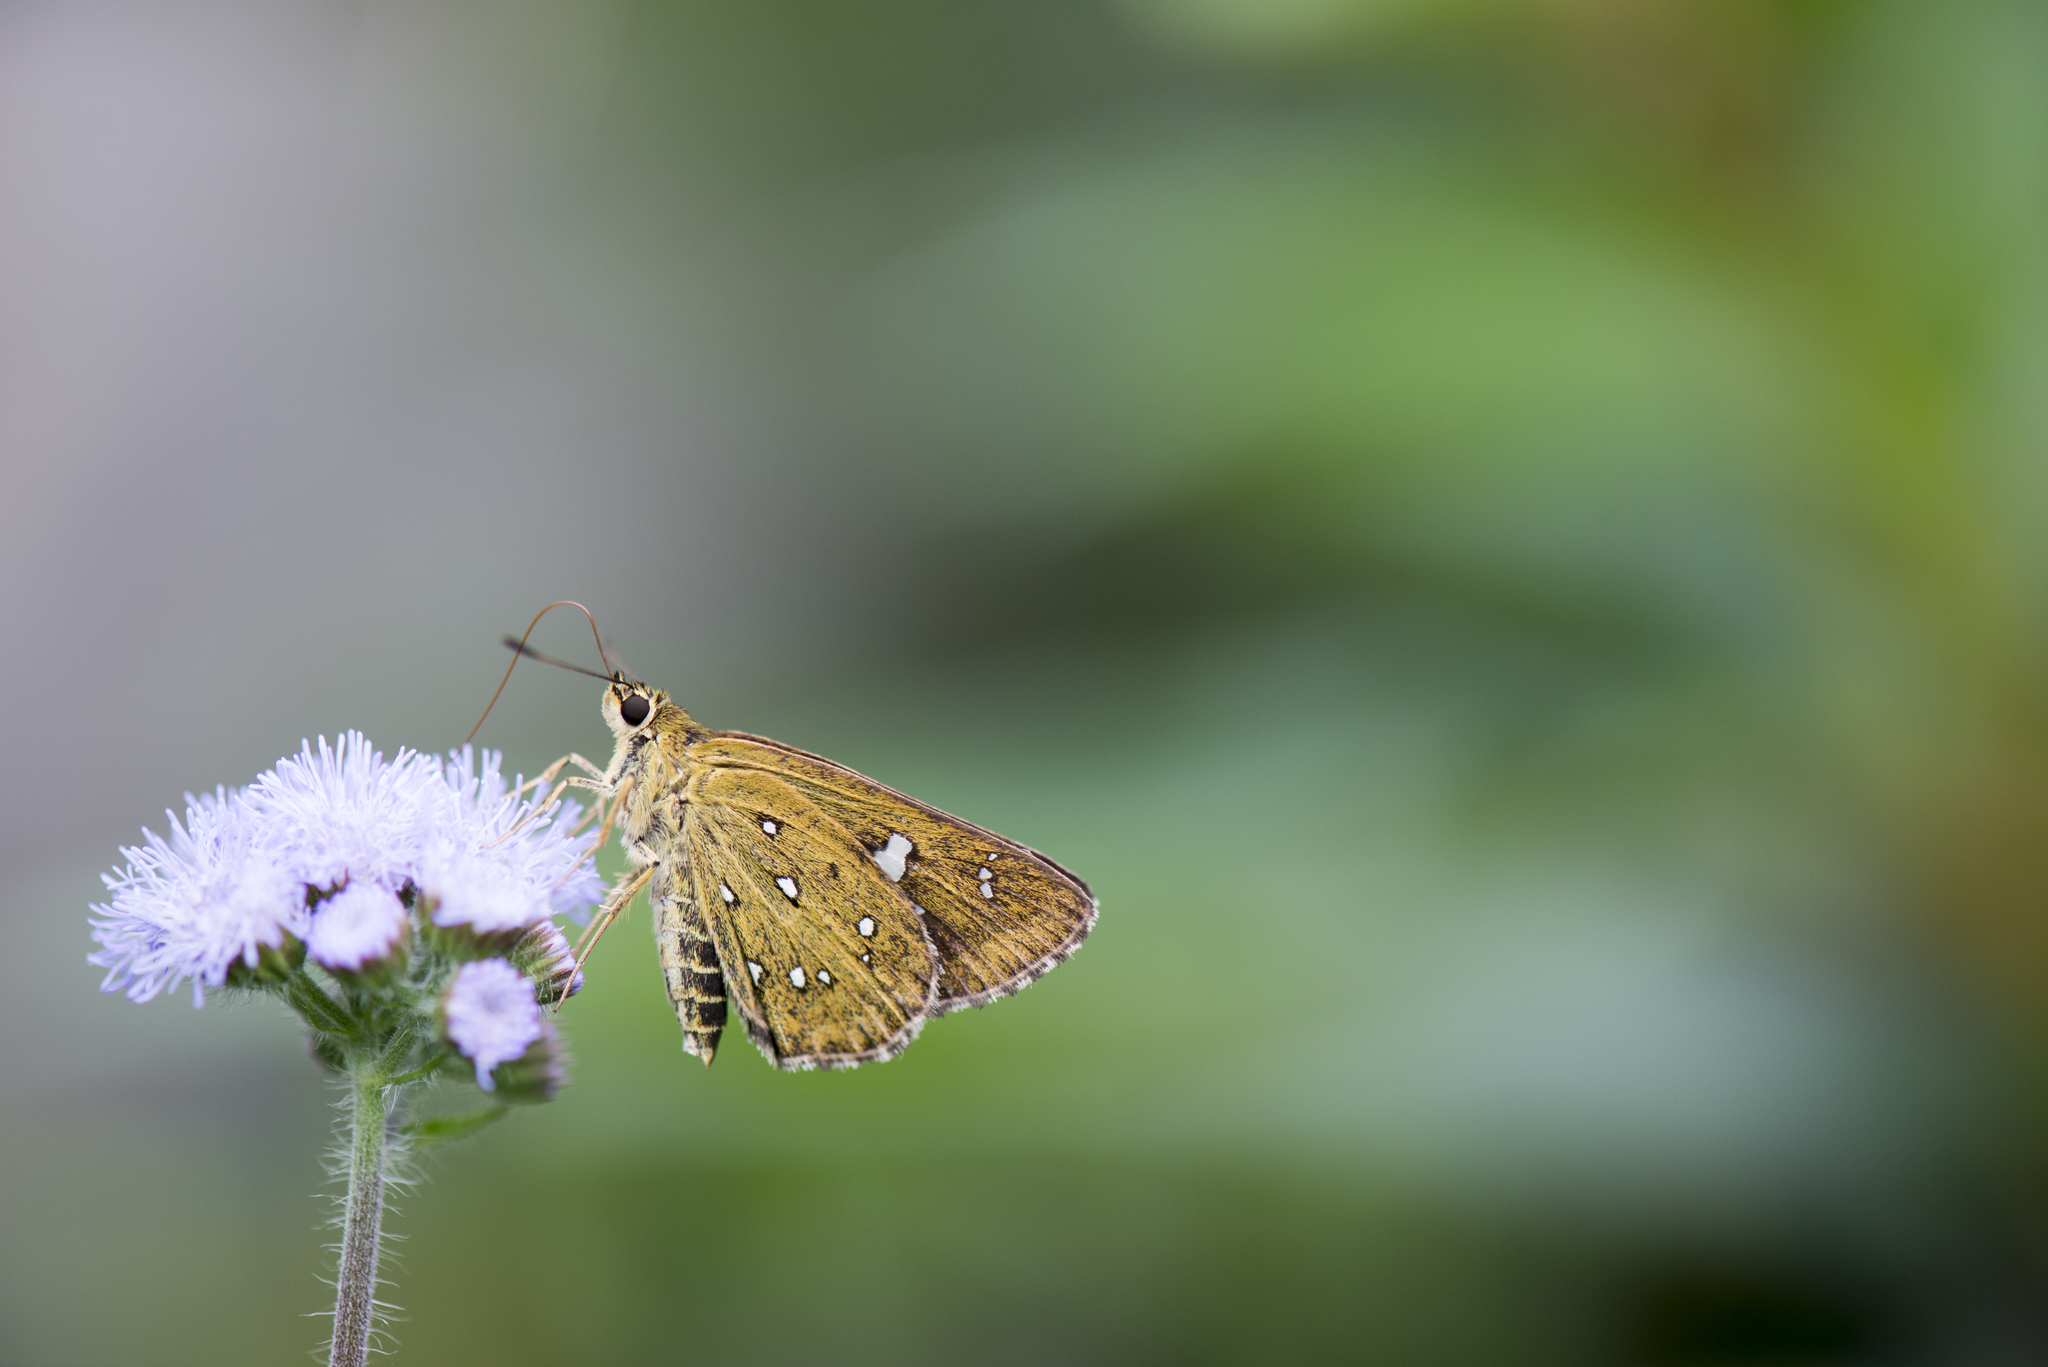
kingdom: Animalia
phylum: Arthropoda
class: Insecta
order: Lepidoptera
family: Hesperiidae
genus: Isoteinon
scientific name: Isoteinon lamprospilus
